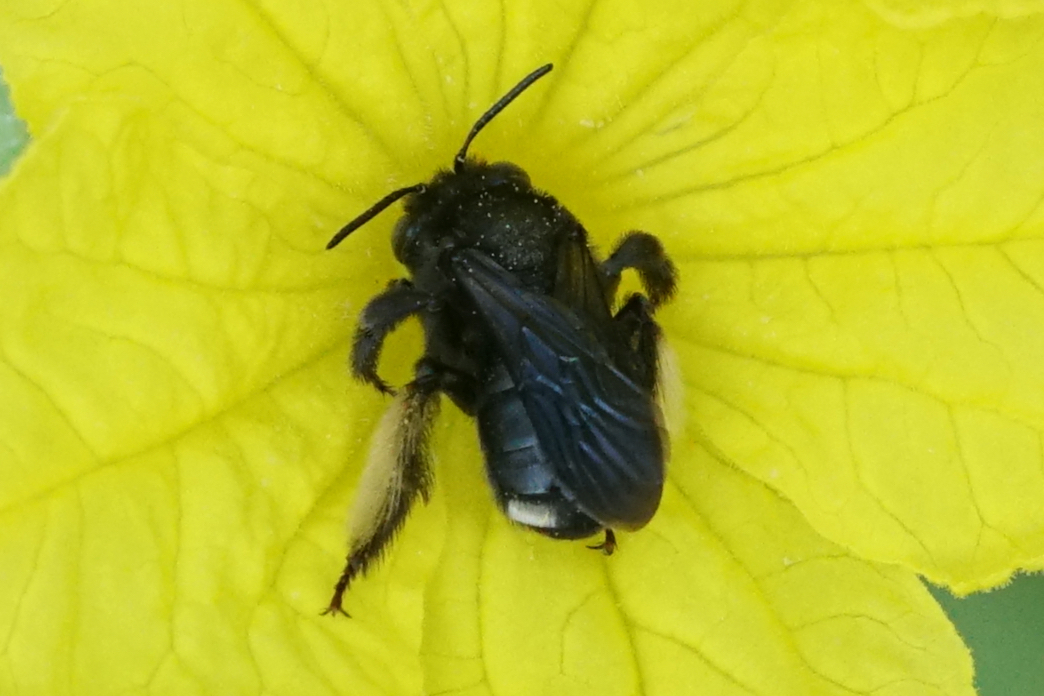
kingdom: Animalia
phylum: Arthropoda
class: Insecta
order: Hymenoptera
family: Apidae
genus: Melissodes
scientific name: Melissodes bimaculatus
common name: Two-spotted long-horned bee
